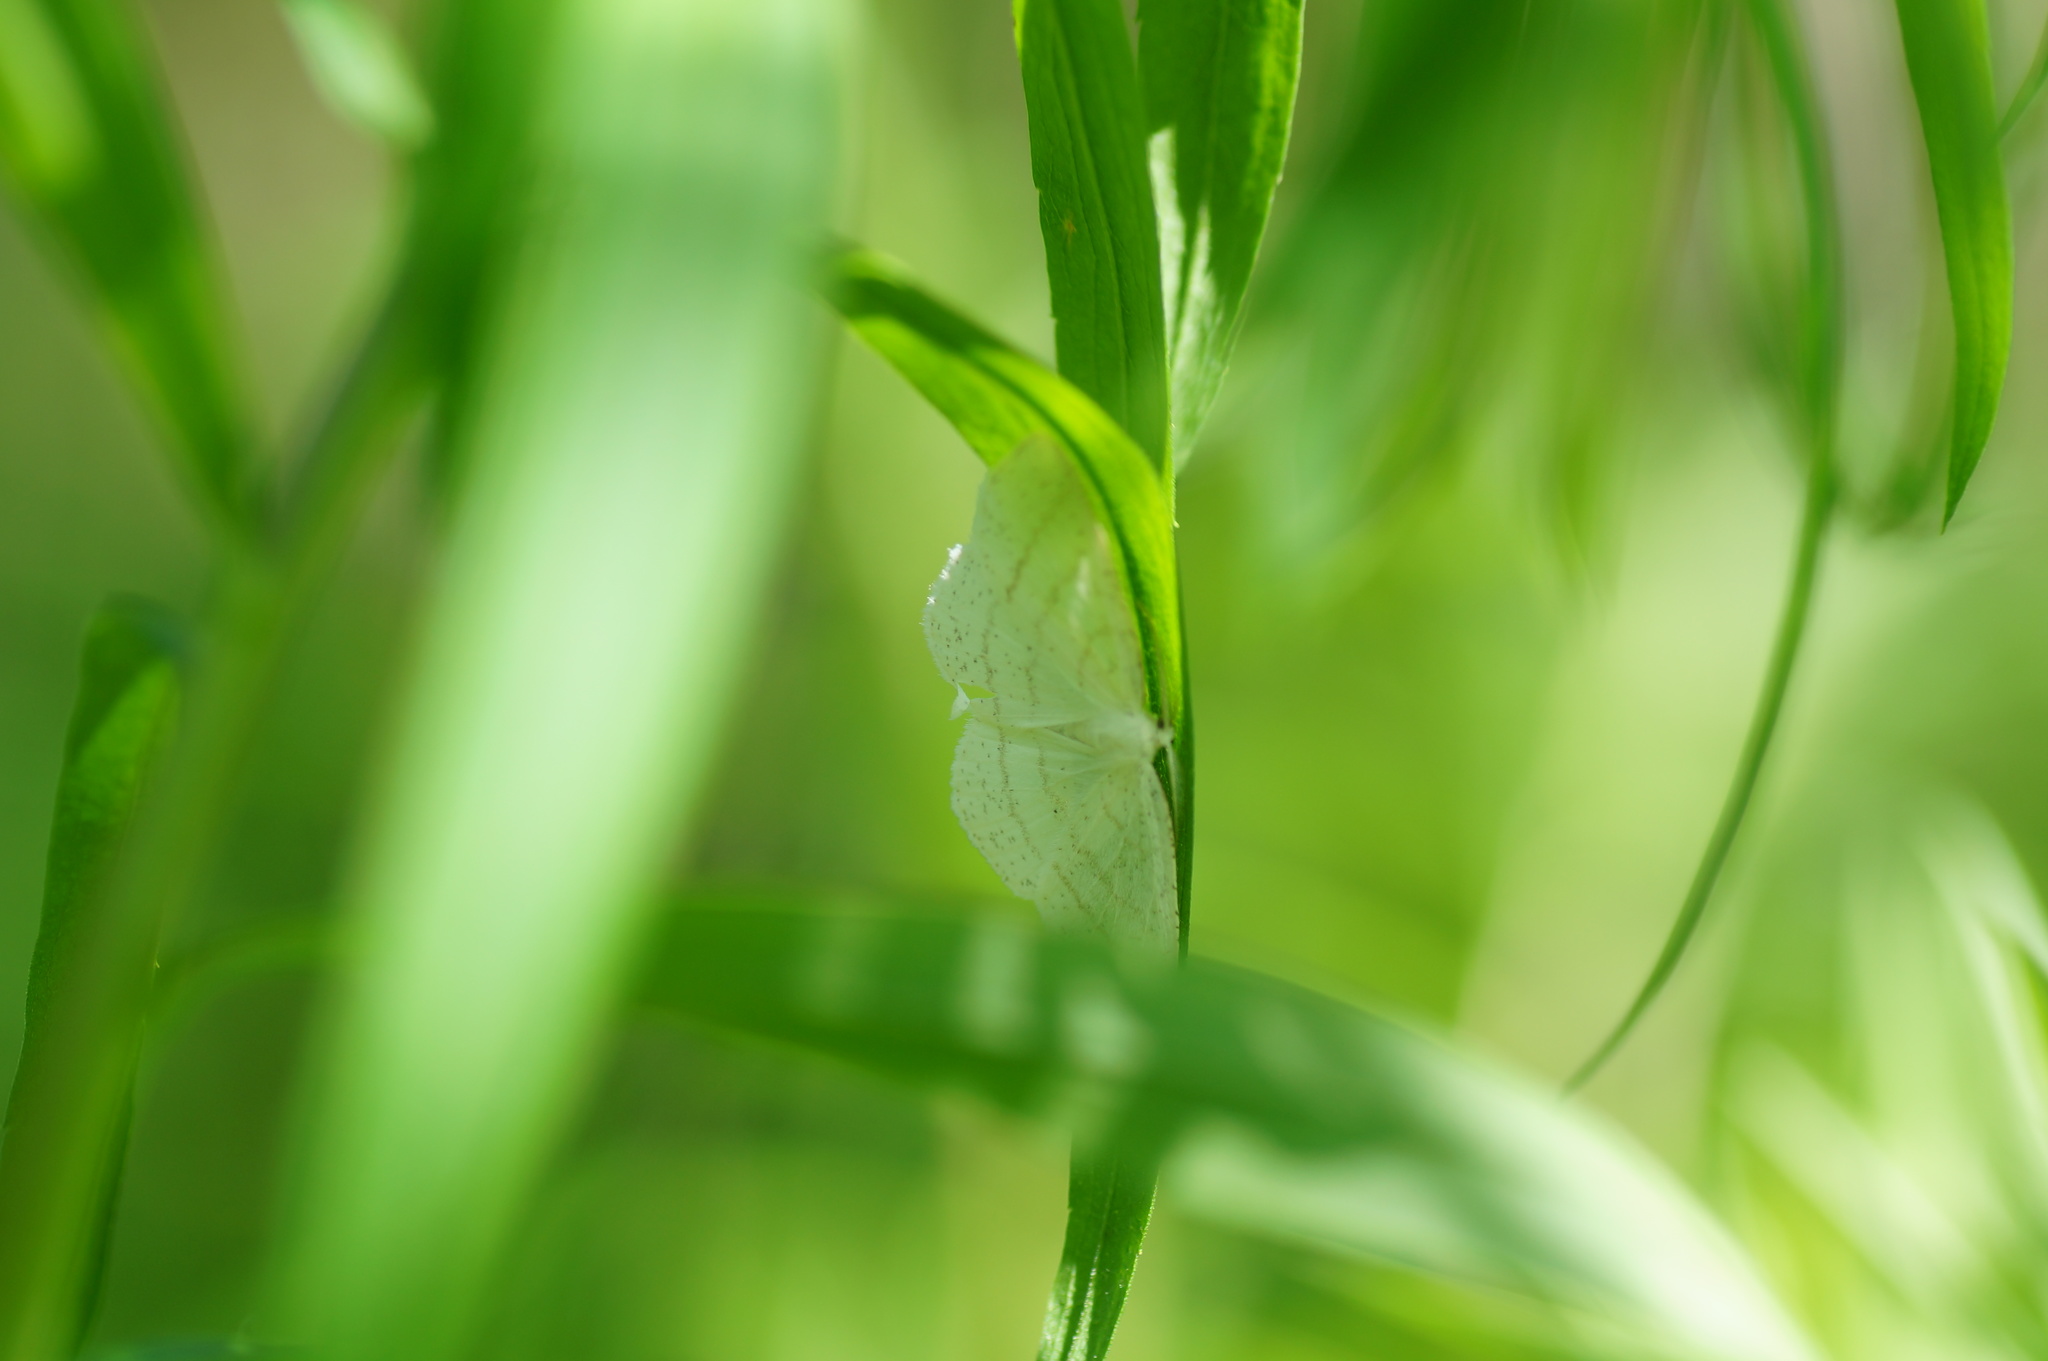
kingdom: Animalia
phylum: Arthropoda
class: Insecta
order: Lepidoptera
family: Geometridae
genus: Cabera
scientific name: Cabera pusaria
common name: Common white wave
